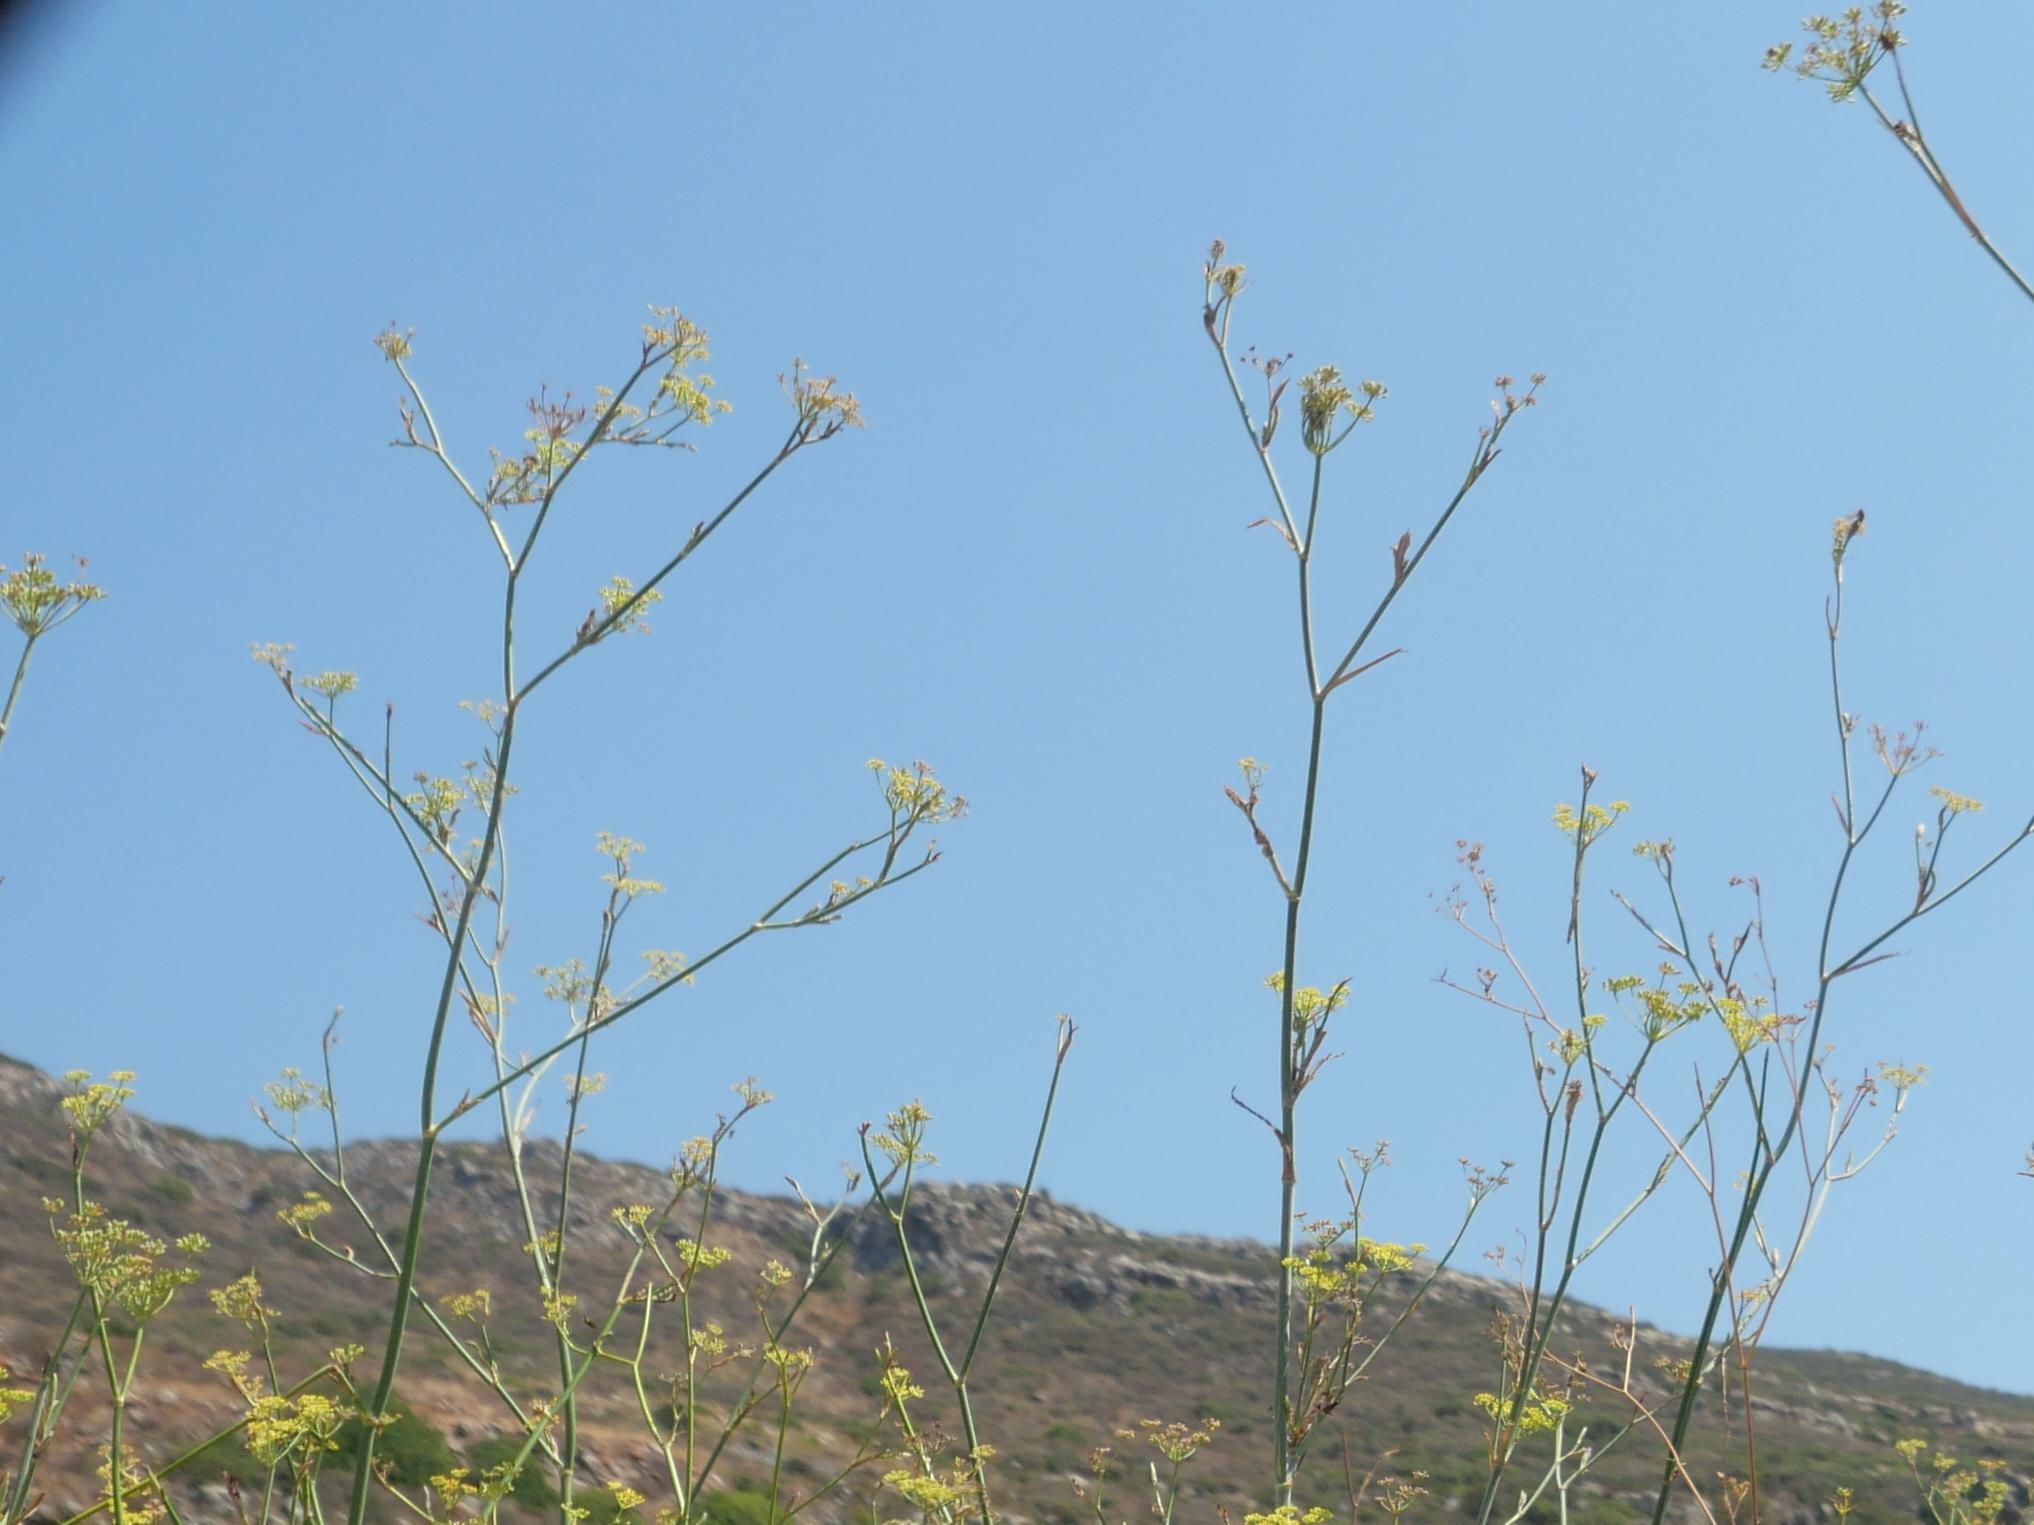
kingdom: Plantae
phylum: Tracheophyta
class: Magnoliopsida
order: Apiales
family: Apiaceae
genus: Foeniculum
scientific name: Foeniculum vulgare
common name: Fennel
